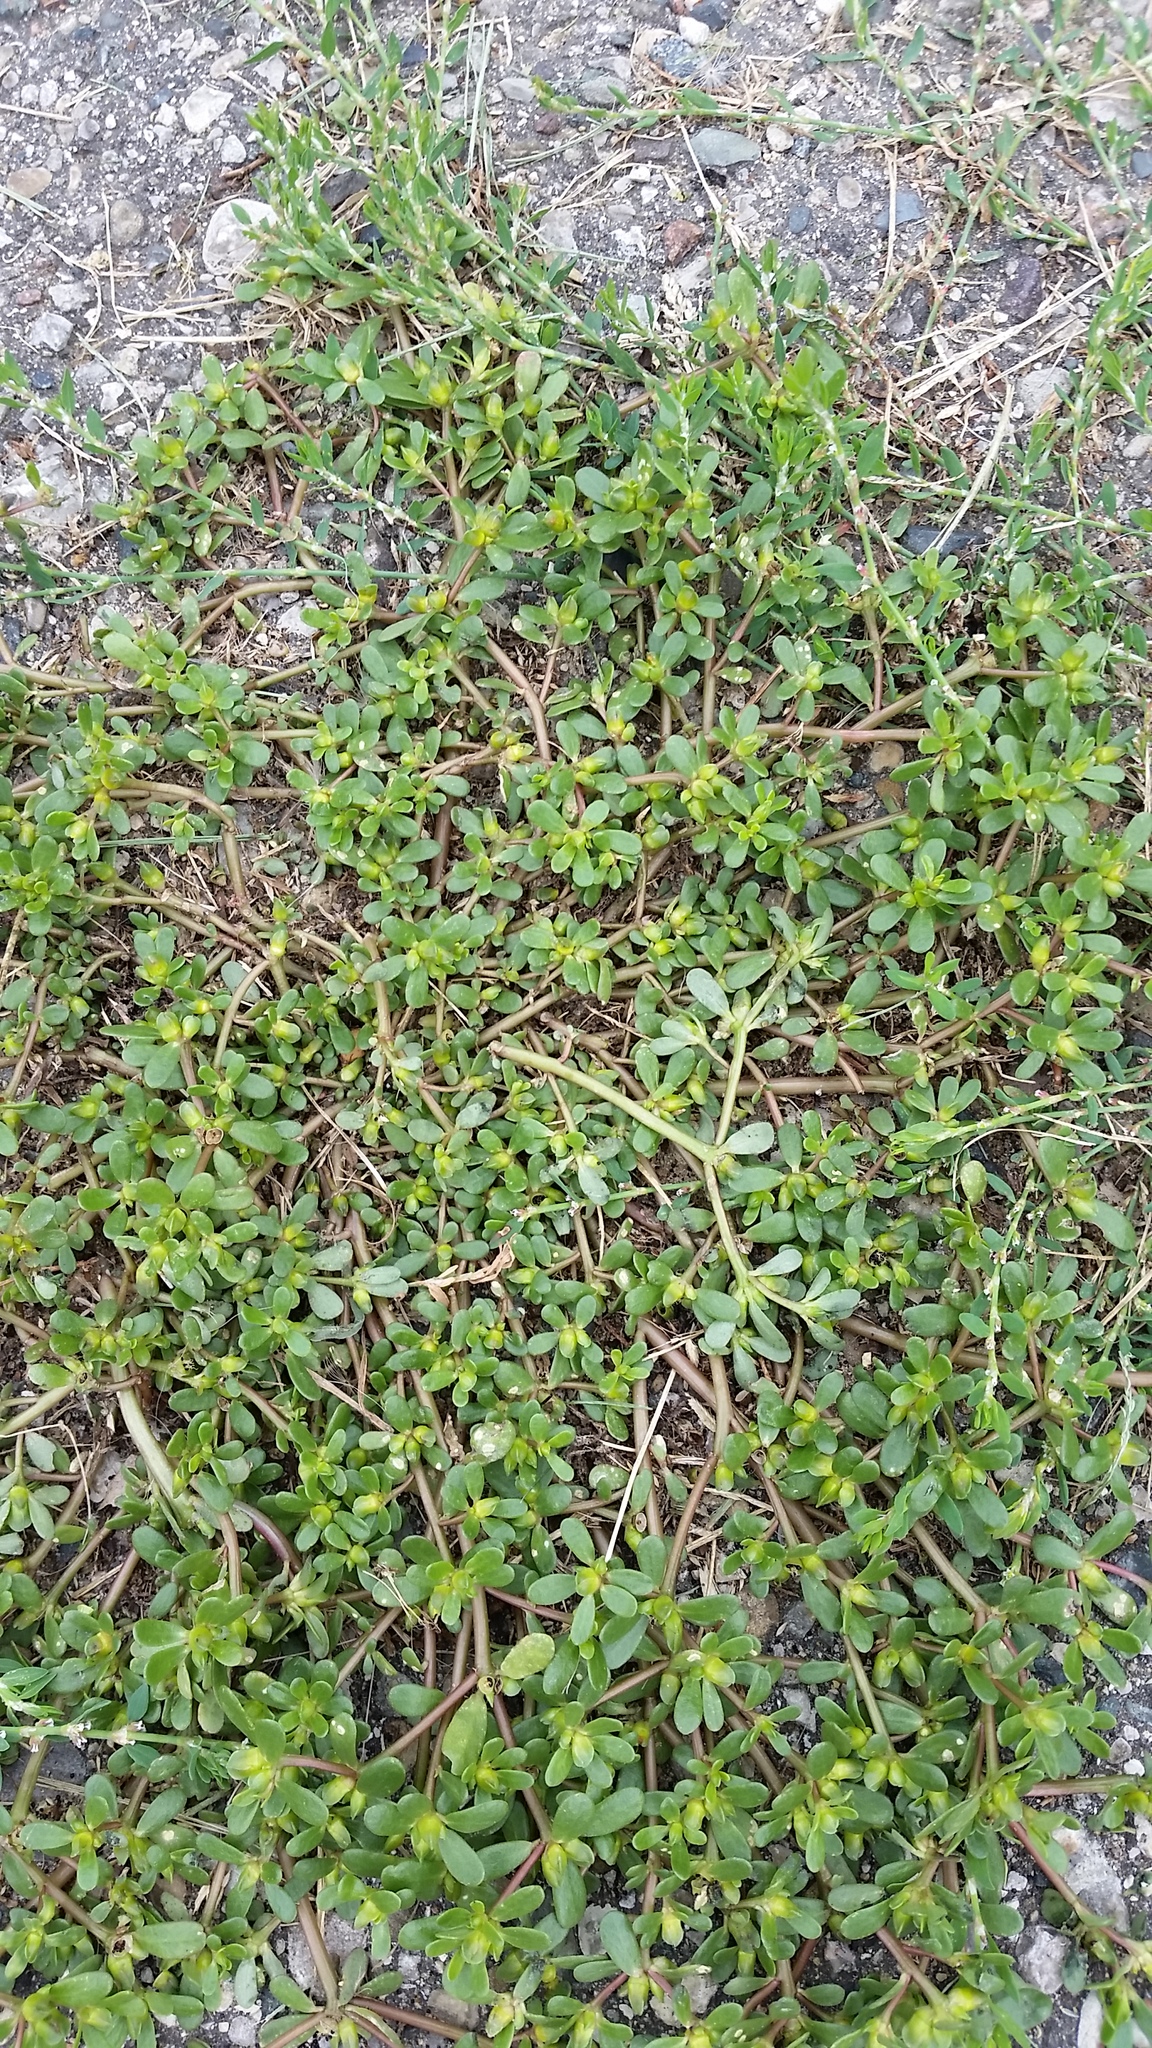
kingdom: Plantae
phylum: Tracheophyta
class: Magnoliopsida
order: Caryophyllales
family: Portulacaceae
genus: Portulaca
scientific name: Portulaca oleracea
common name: Common purslane
